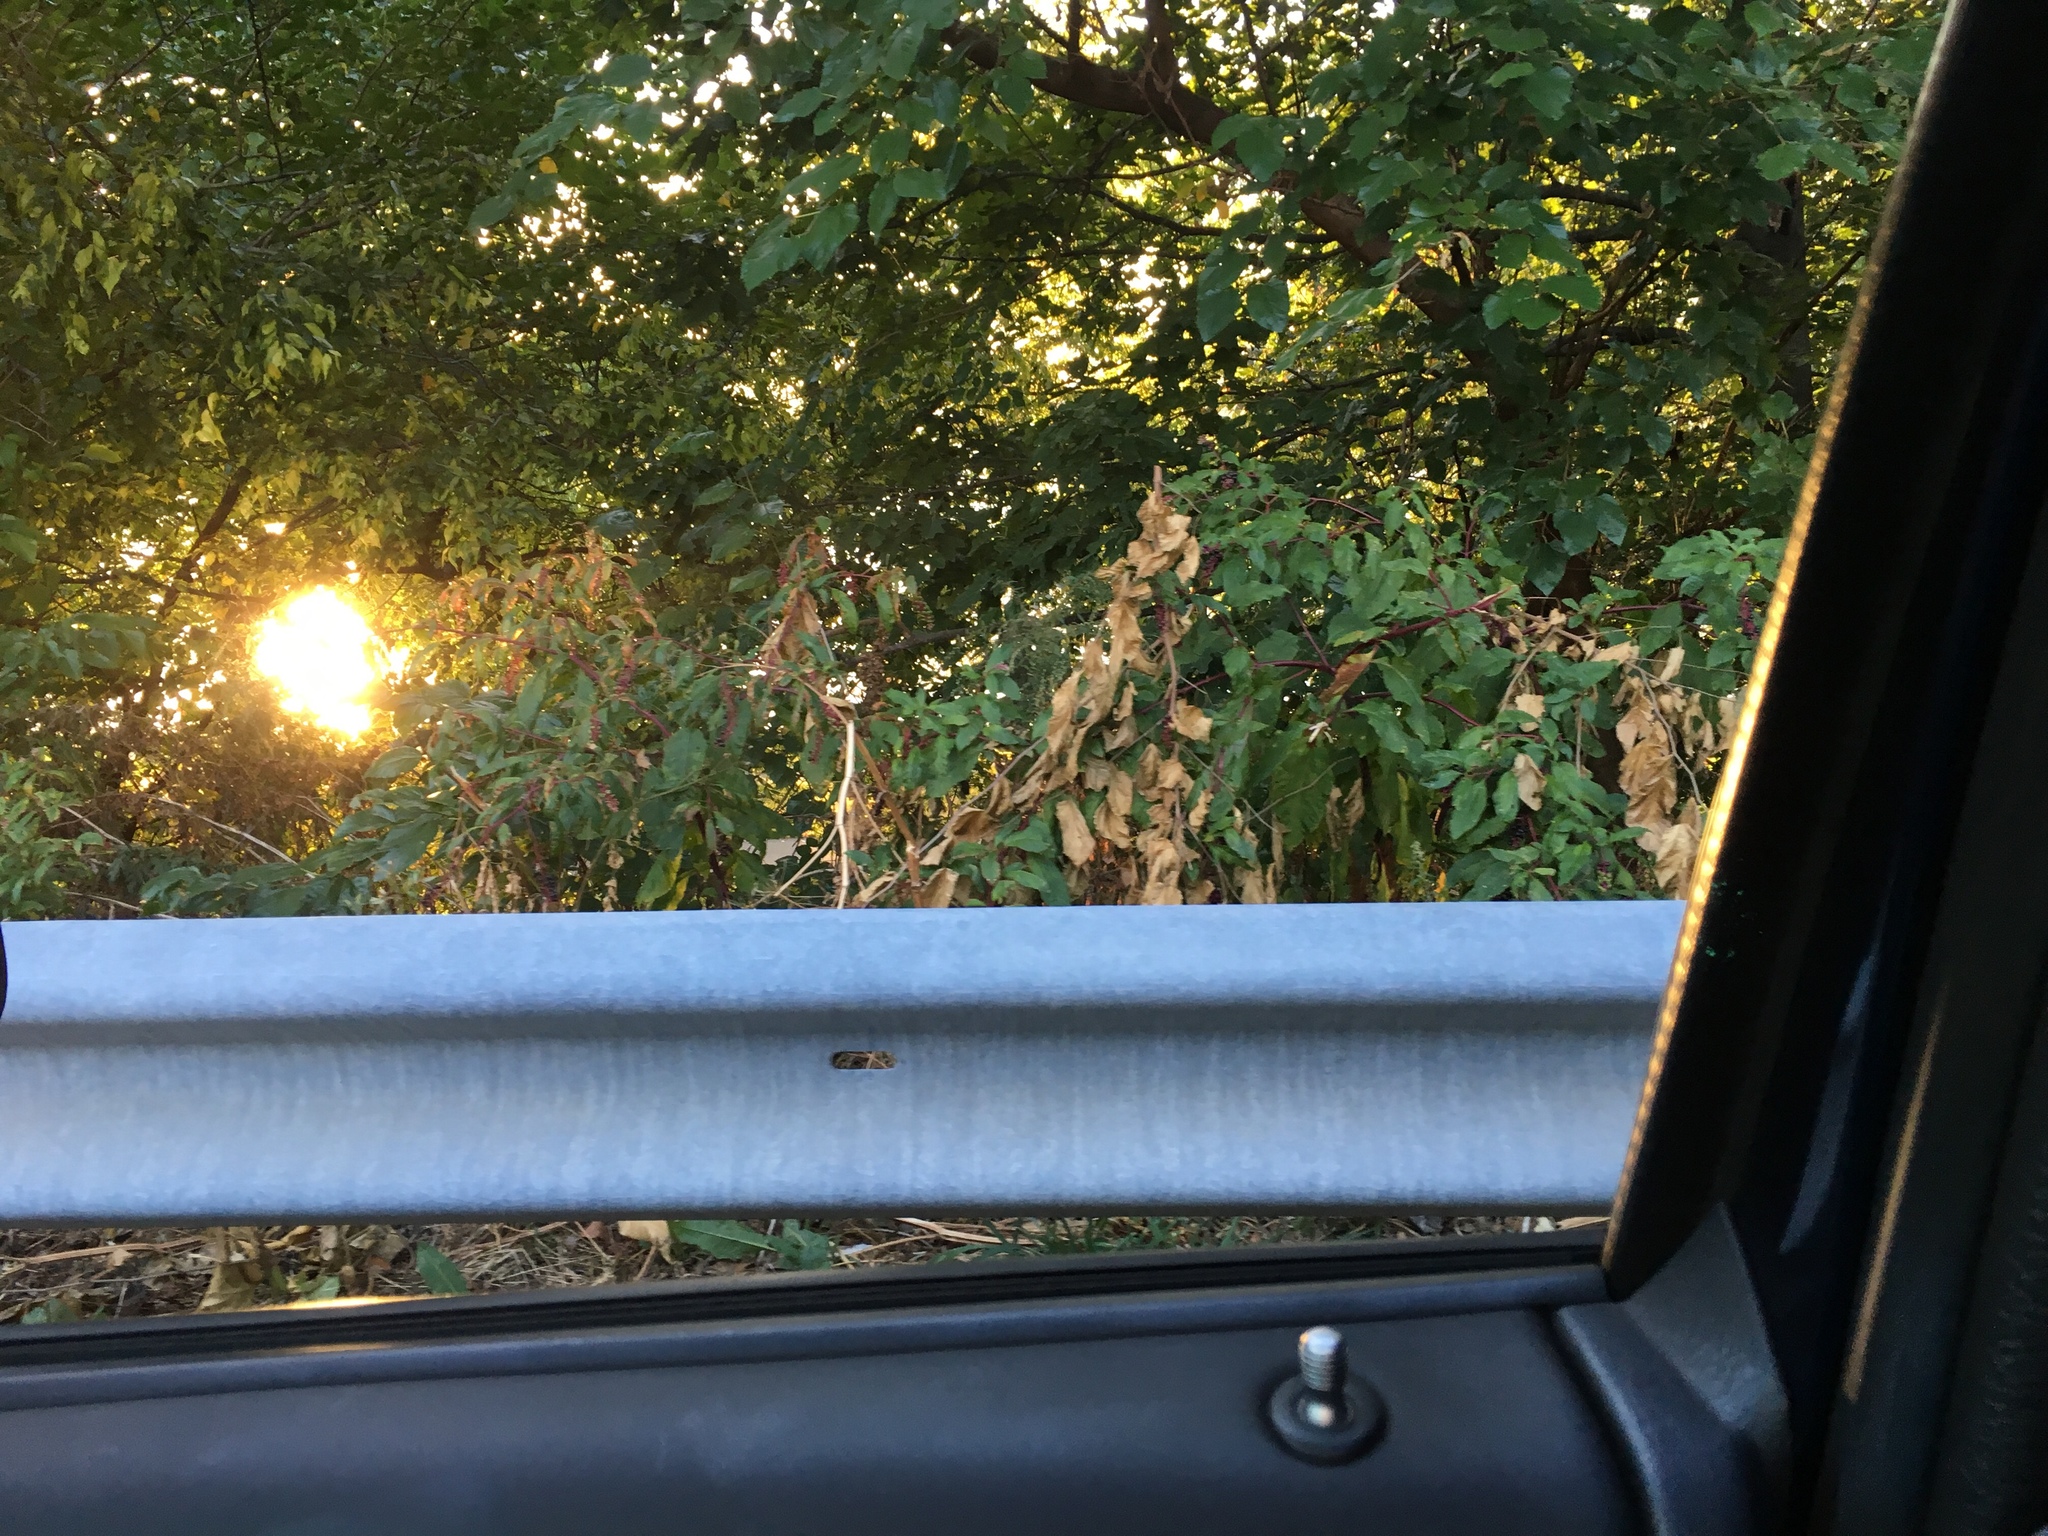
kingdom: Plantae
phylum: Tracheophyta
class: Magnoliopsida
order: Caryophyllales
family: Phytolaccaceae
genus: Phytolacca
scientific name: Phytolacca americana
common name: American pokeweed
